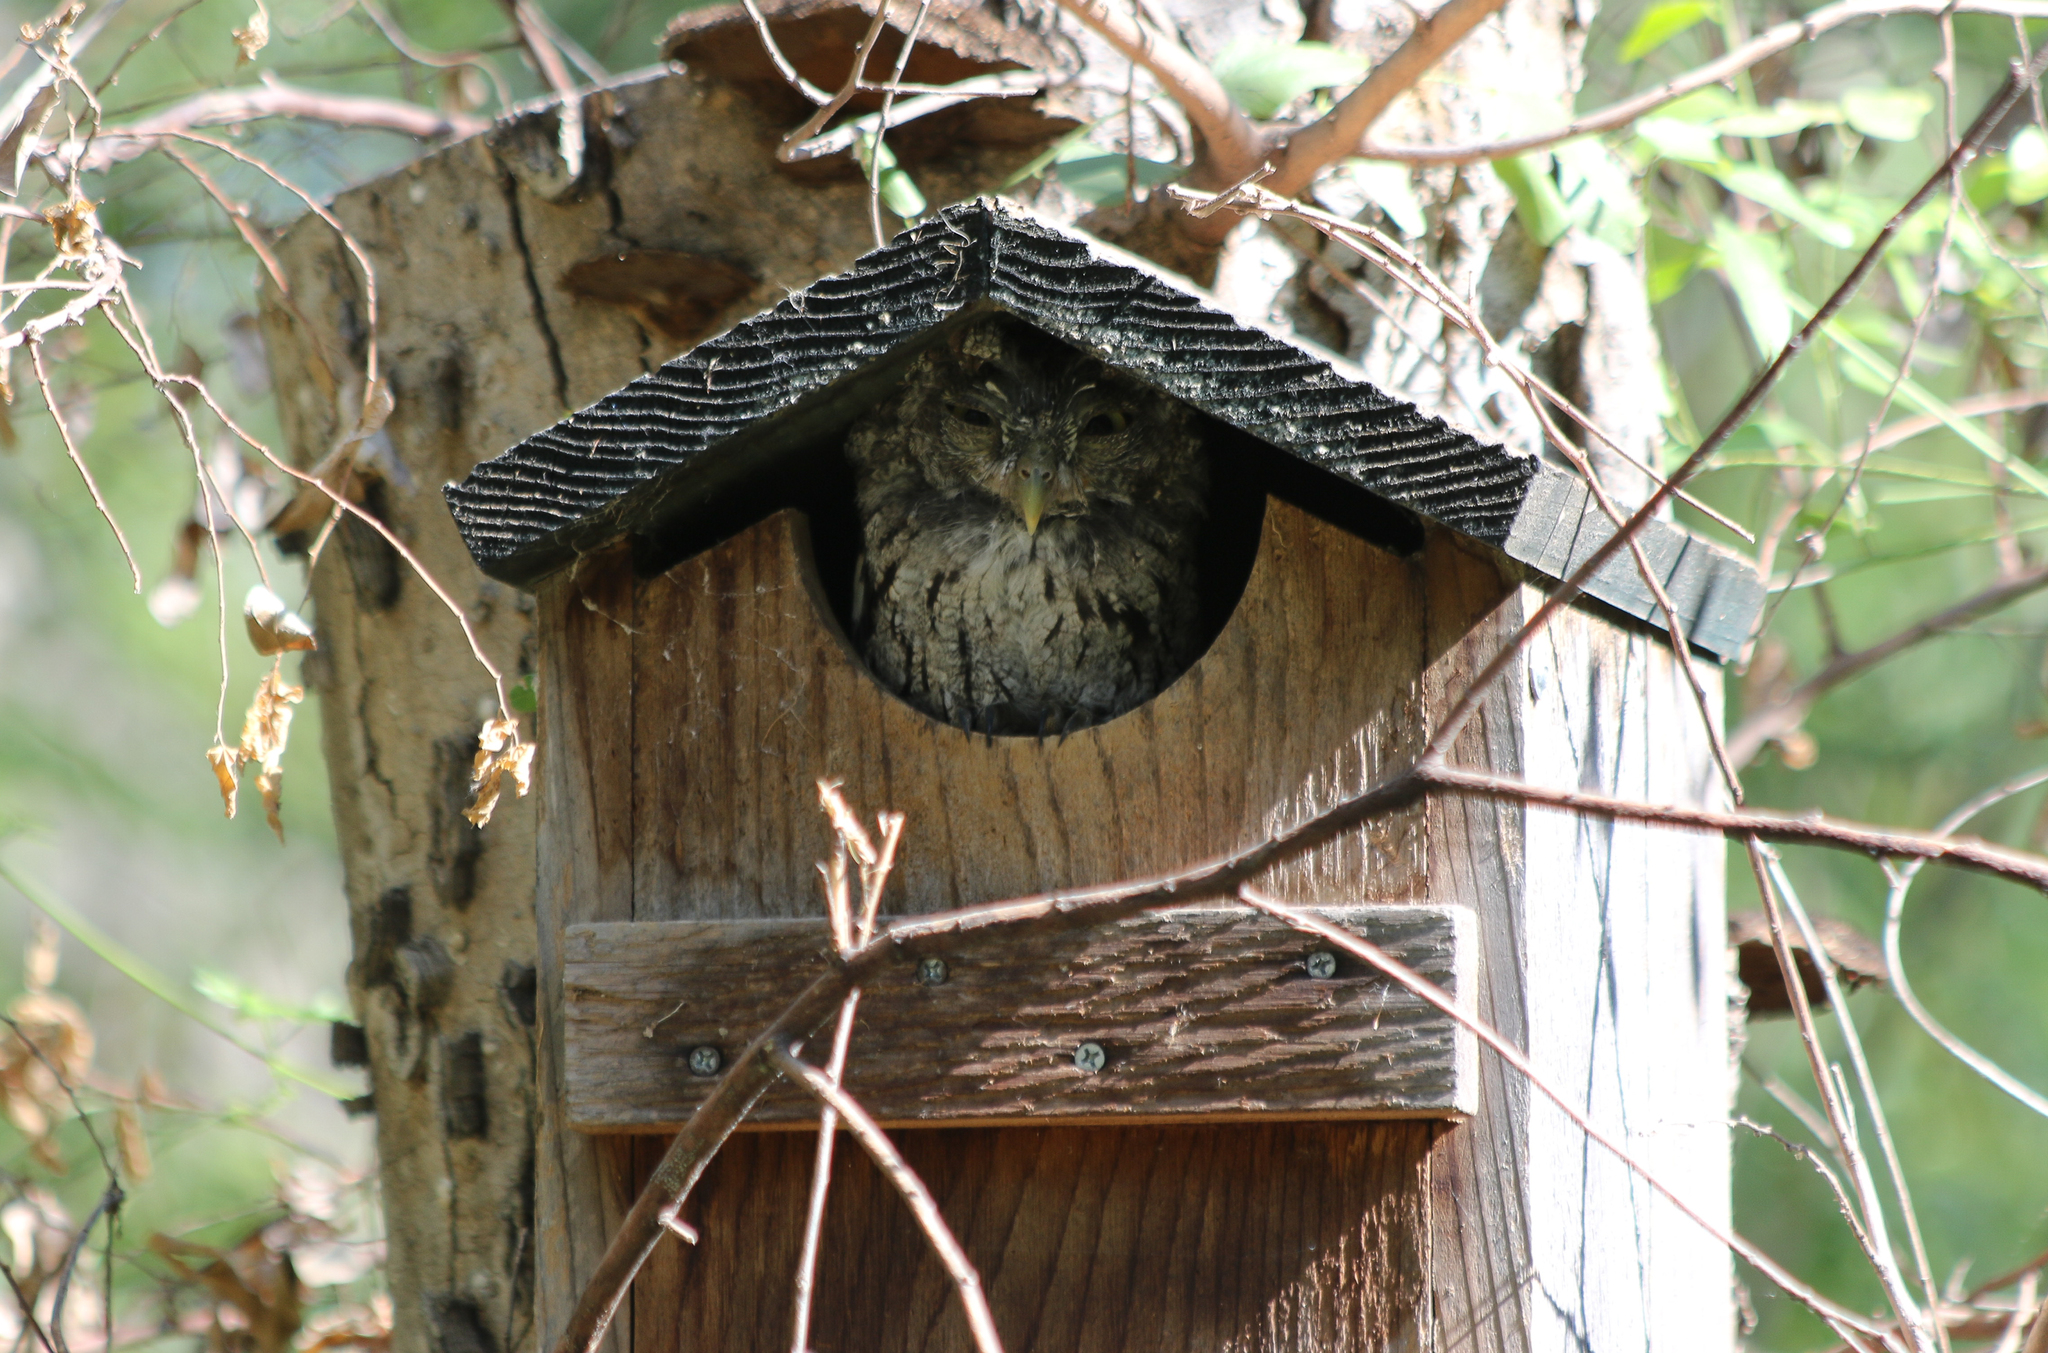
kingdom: Animalia
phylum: Chordata
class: Aves
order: Strigiformes
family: Strigidae
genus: Megascops
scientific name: Megascops asio
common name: Eastern screech-owl
